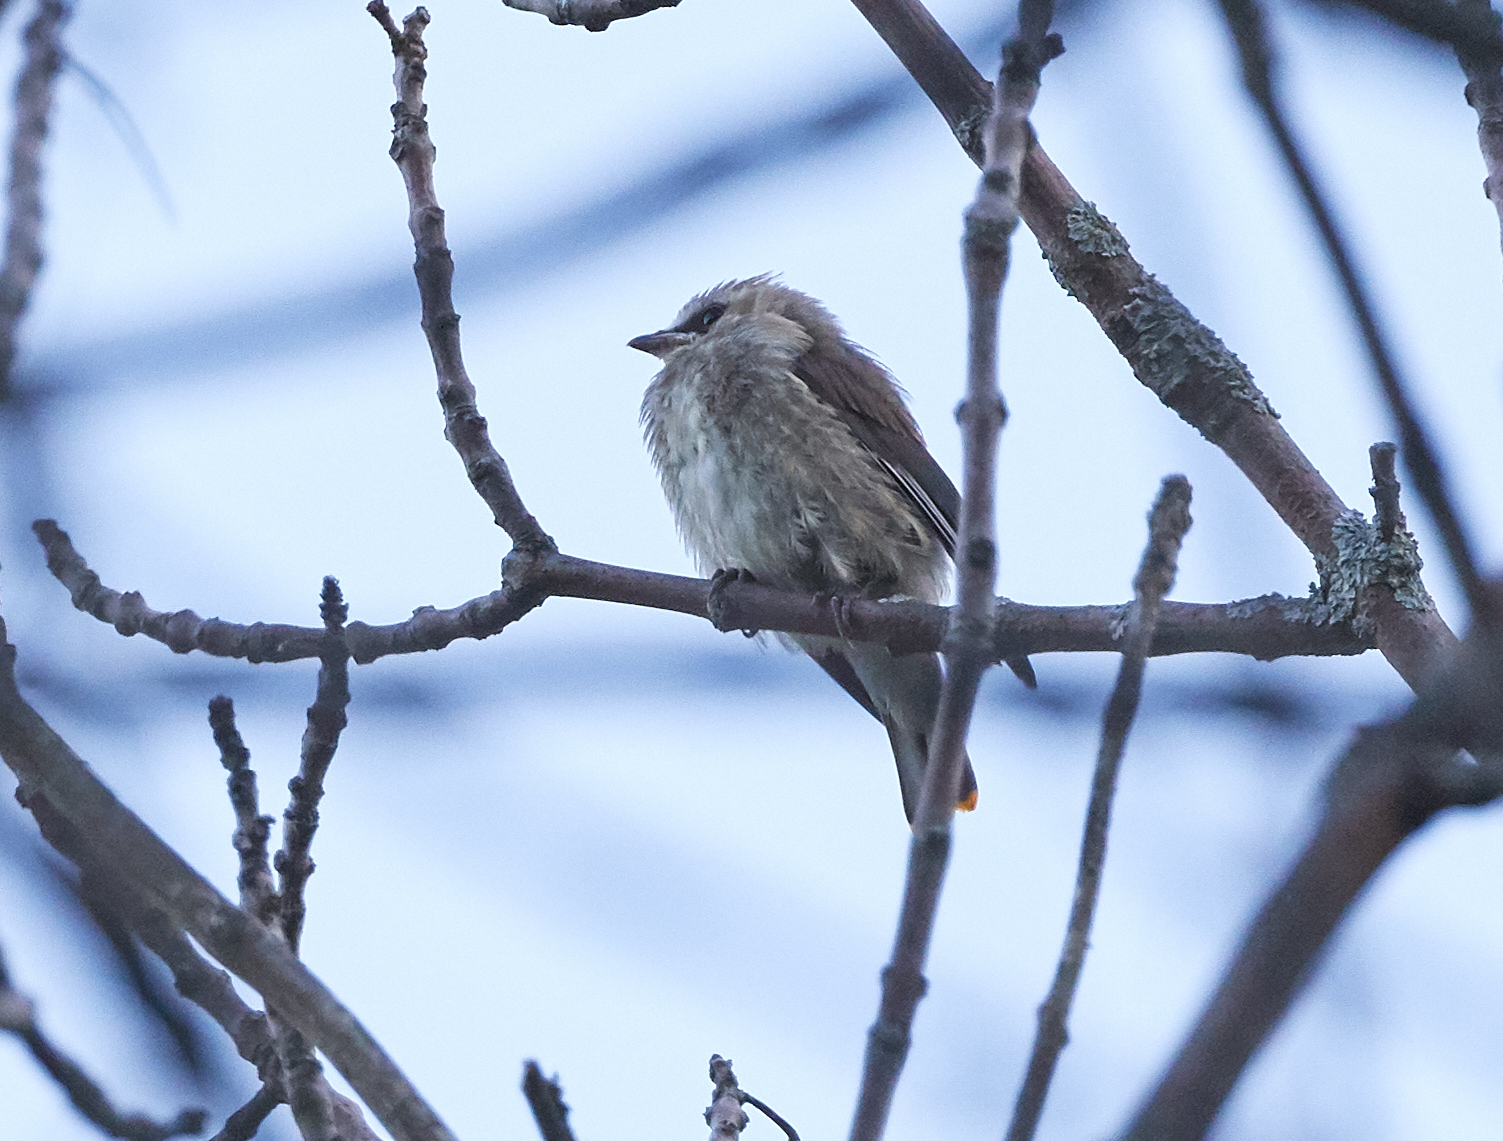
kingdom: Animalia
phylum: Chordata
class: Aves
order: Passeriformes
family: Bombycillidae
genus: Bombycilla
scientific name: Bombycilla cedrorum
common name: Cedar waxwing
